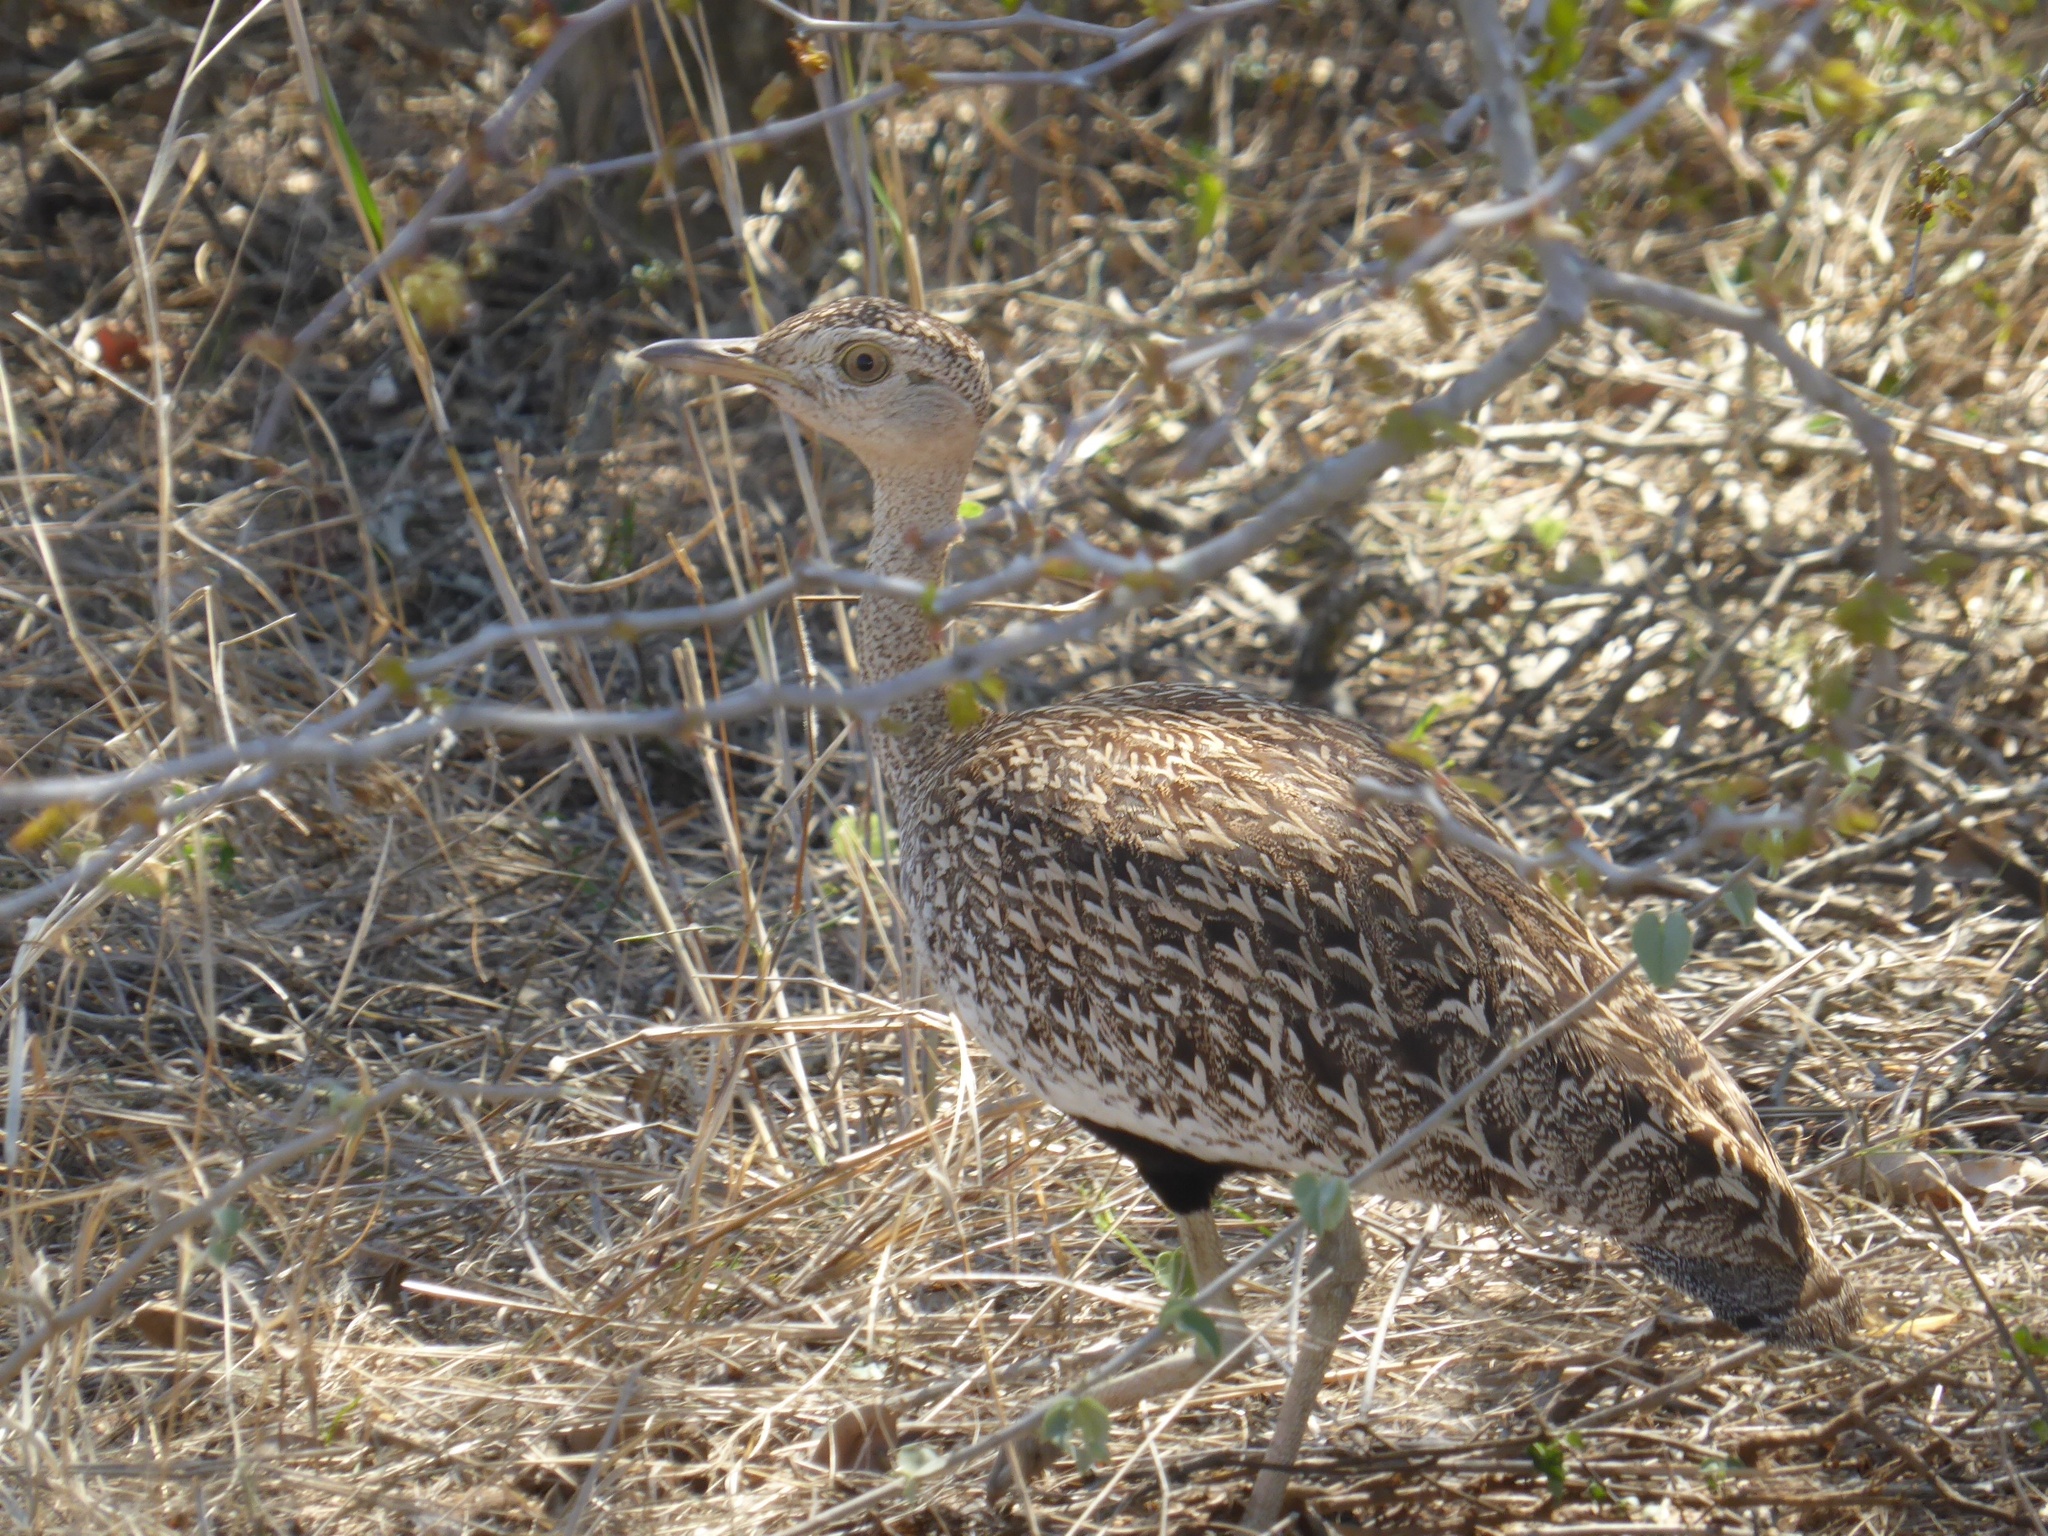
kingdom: Animalia
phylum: Chordata
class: Aves
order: Otidiformes
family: Otididae
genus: Lophotis
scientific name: Lophotis ruficrista
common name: Red-crested korhaan
